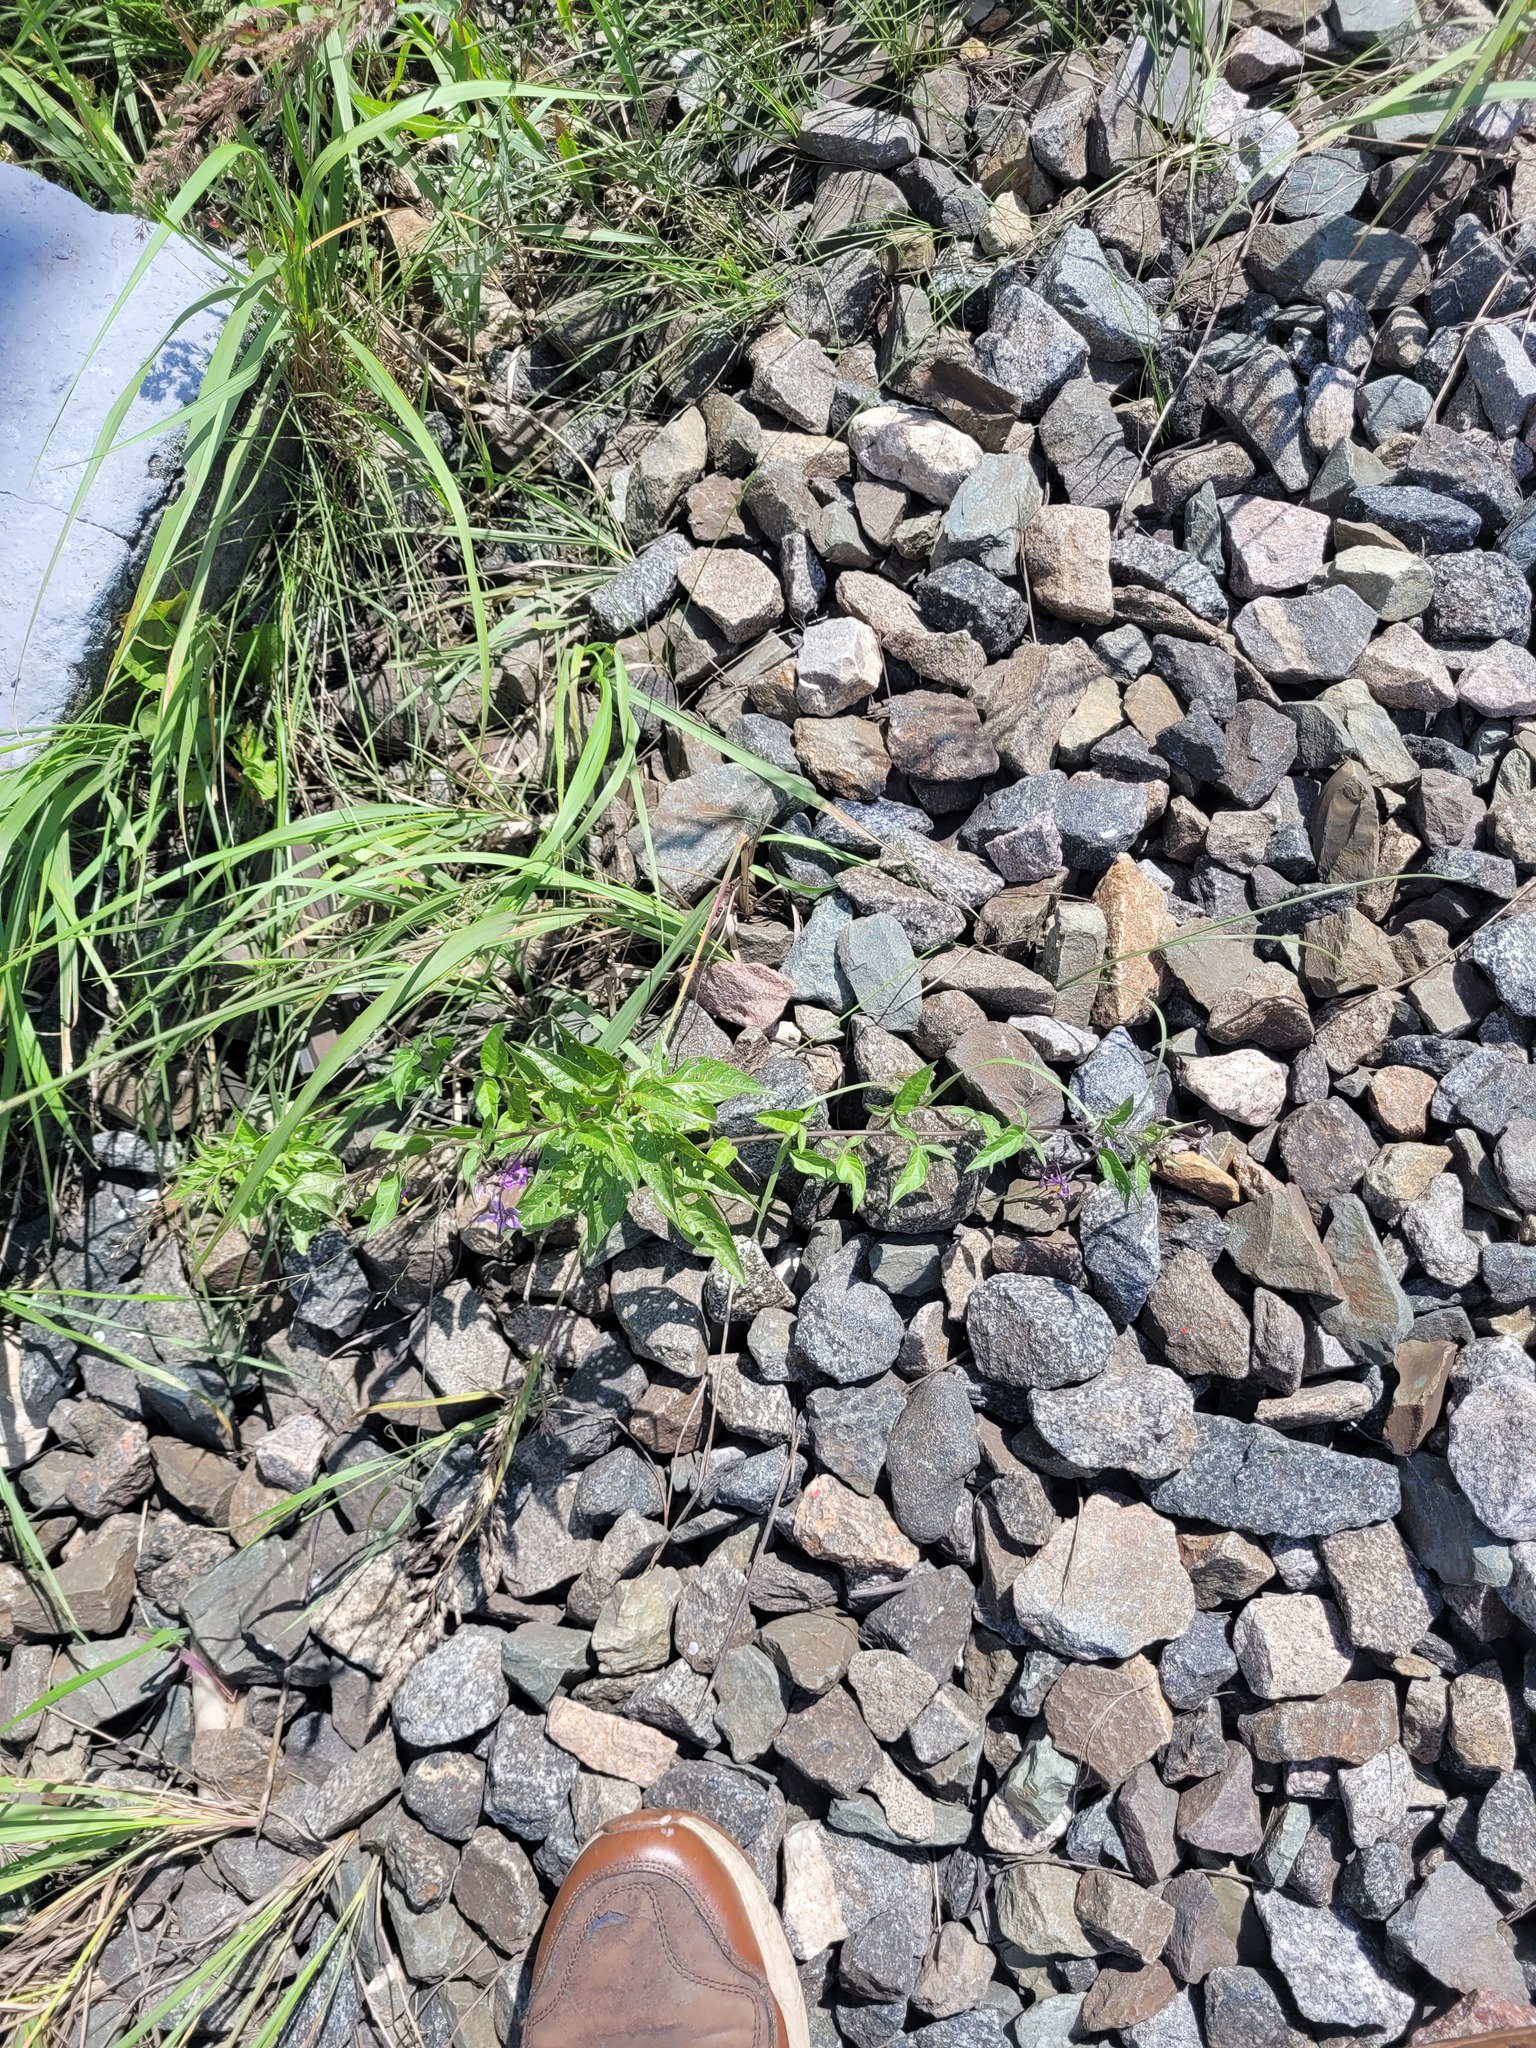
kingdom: Plantae
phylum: Tracheophyta
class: Magnoliopsida
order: Solanales
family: Solanaceae
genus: Solanum
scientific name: Solanum dulcamara
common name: Climbing nightshade
